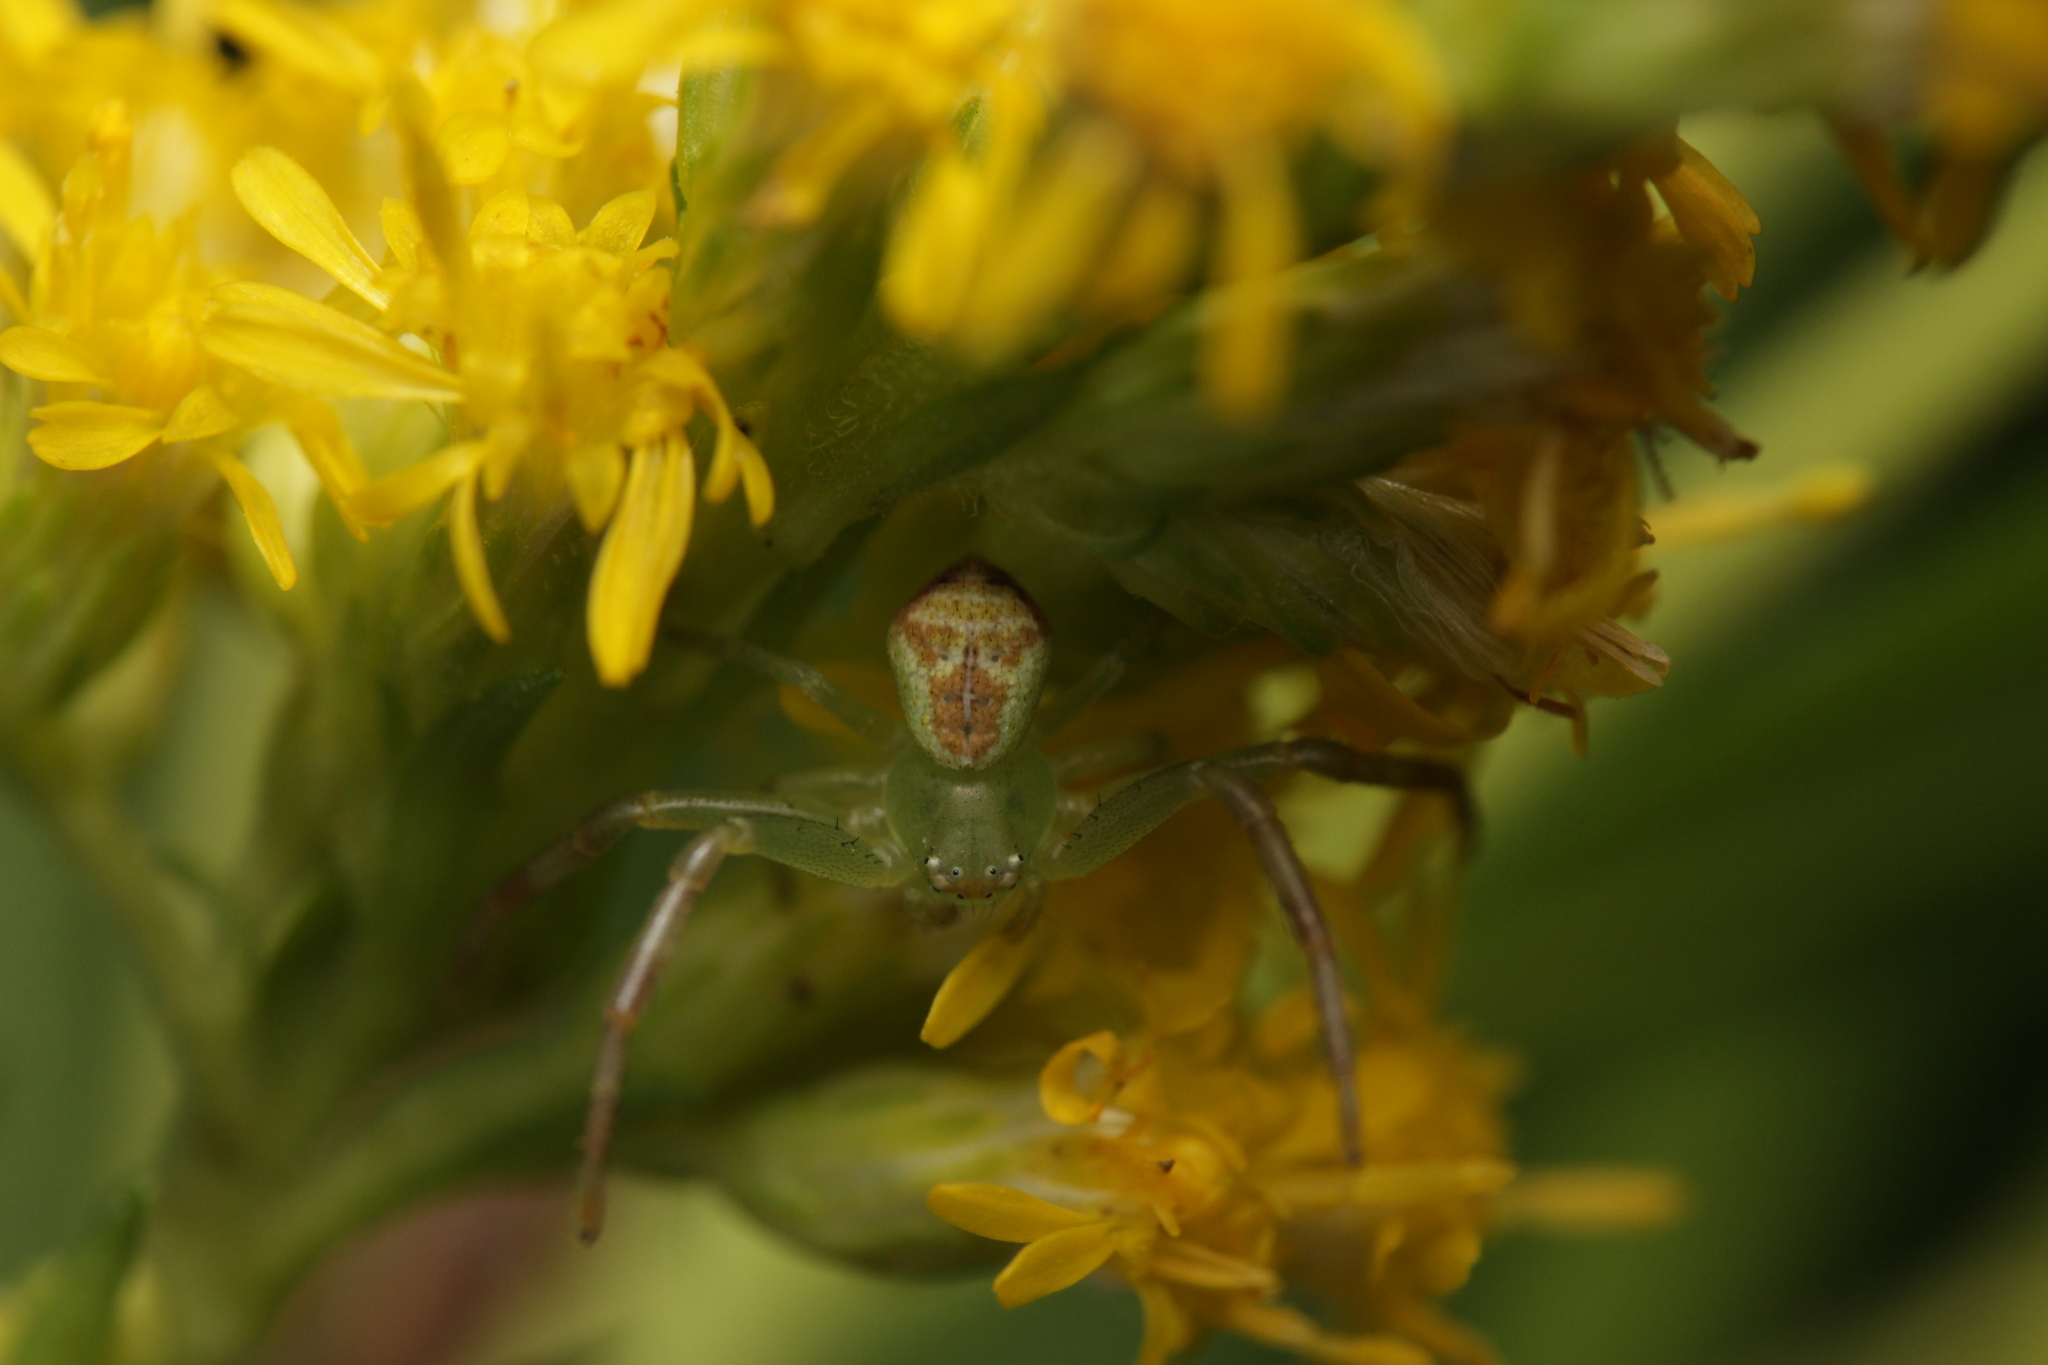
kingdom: Animalia
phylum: Arthropoda
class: Arachnida
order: Araneae
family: Thomisidae
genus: Ebrechtella
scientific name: Ebrechtella tricuspidata
